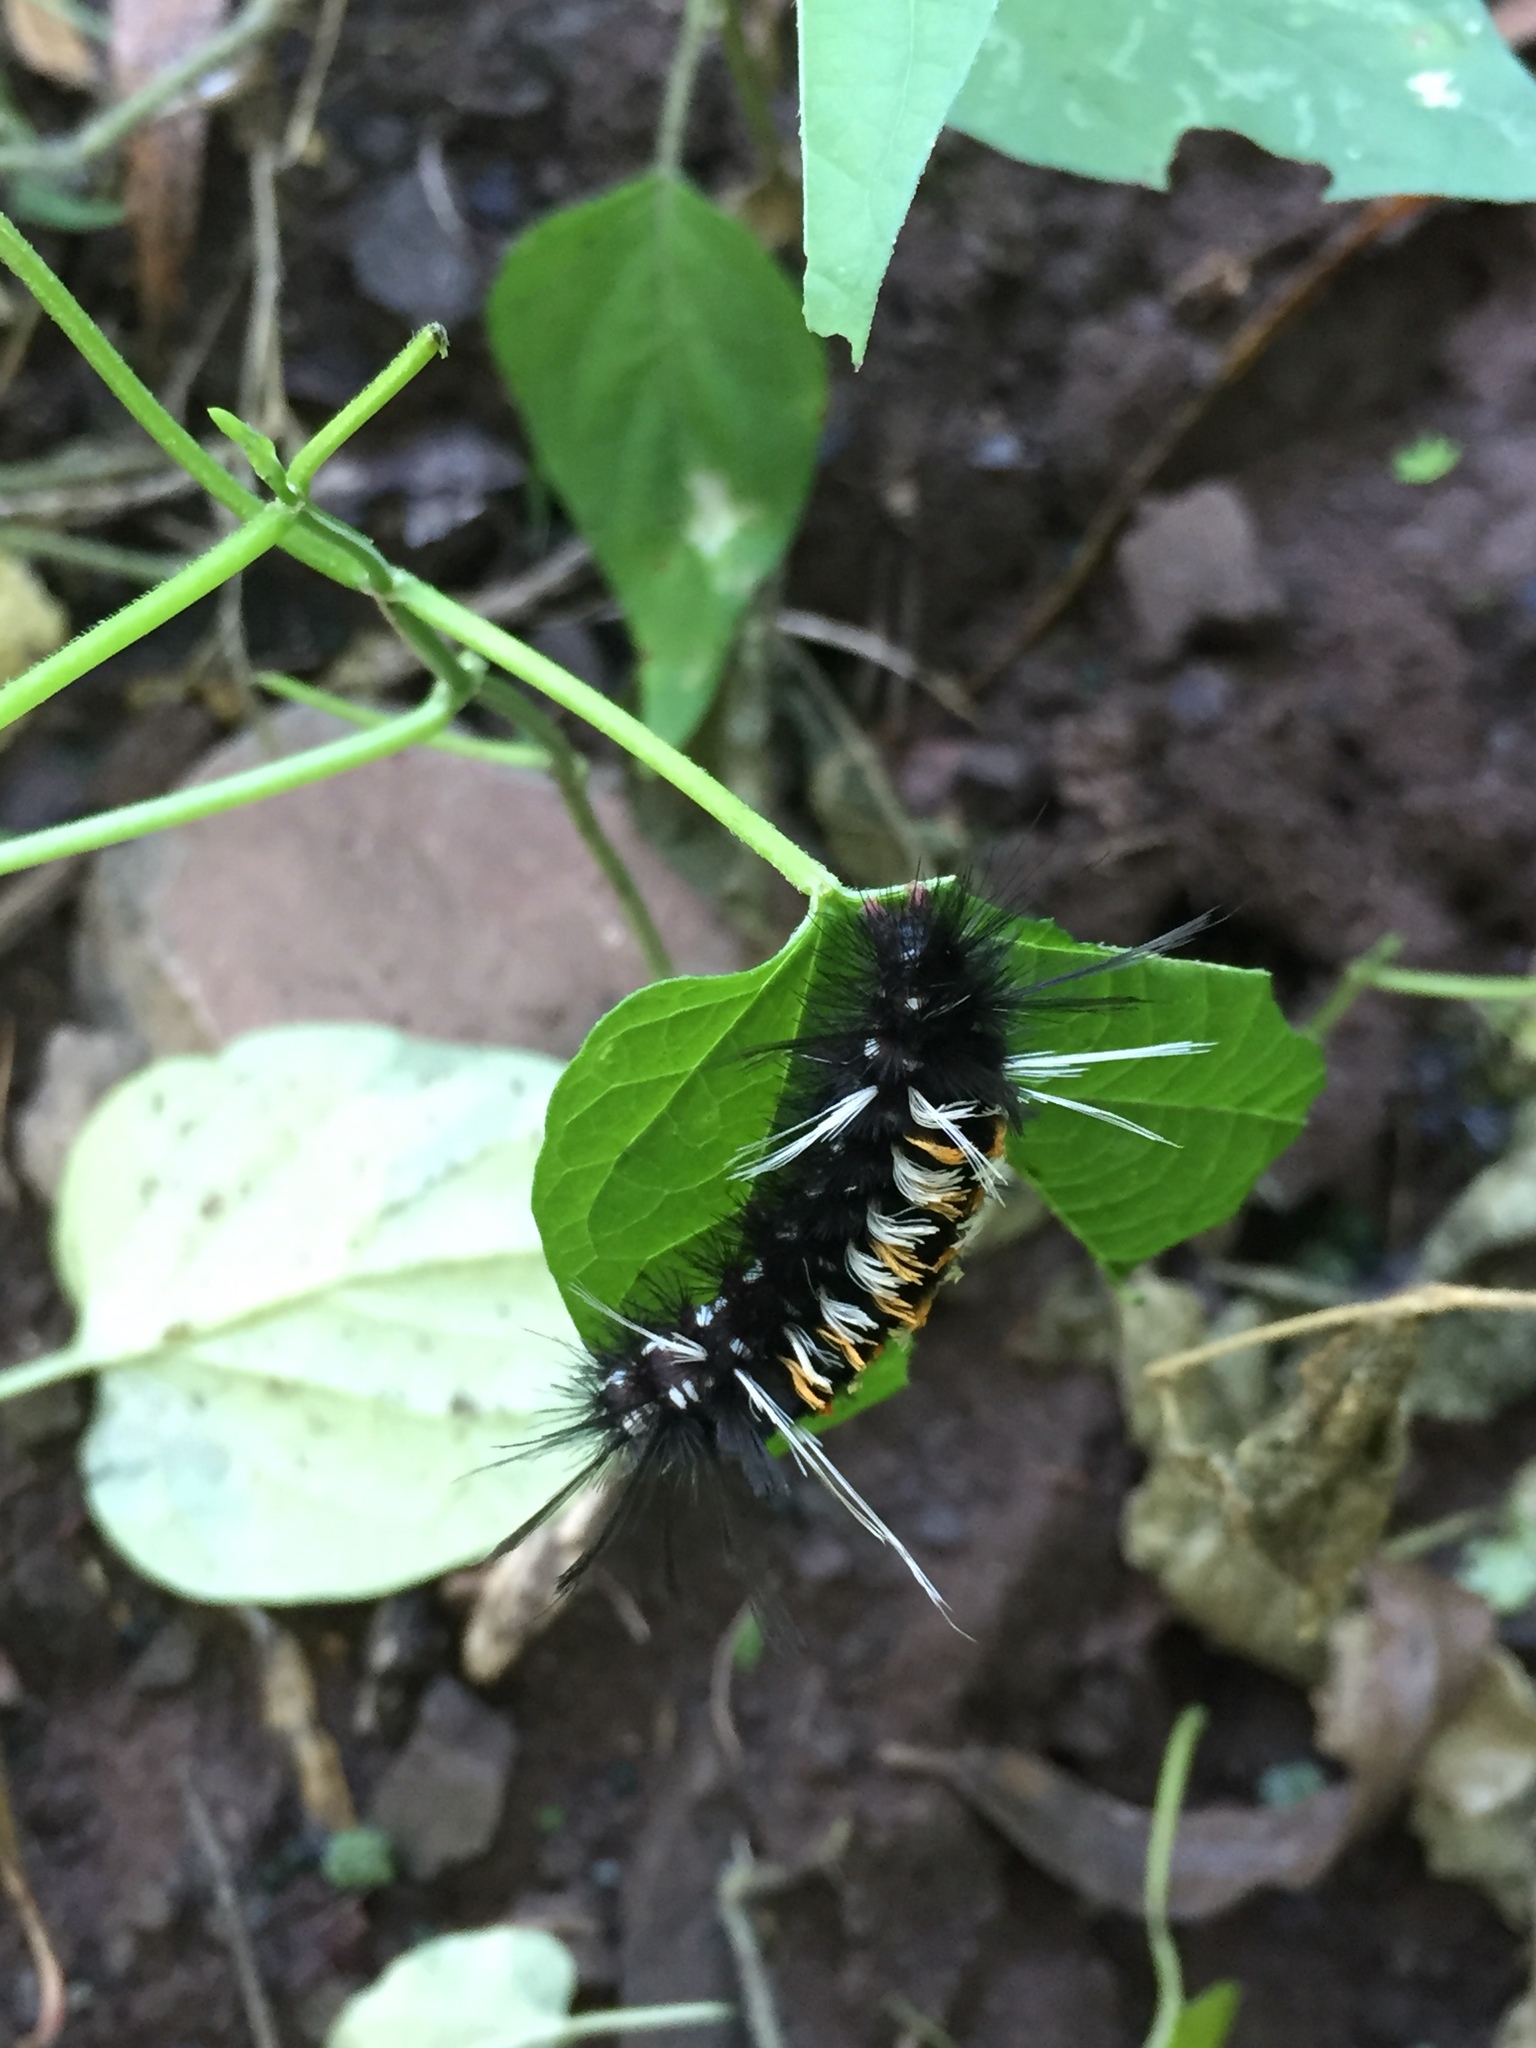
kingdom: Animalia
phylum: Arthropoda
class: Insecta
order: Lepidoptera
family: Erebidae
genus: Euchaetes
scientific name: Euchaetes
